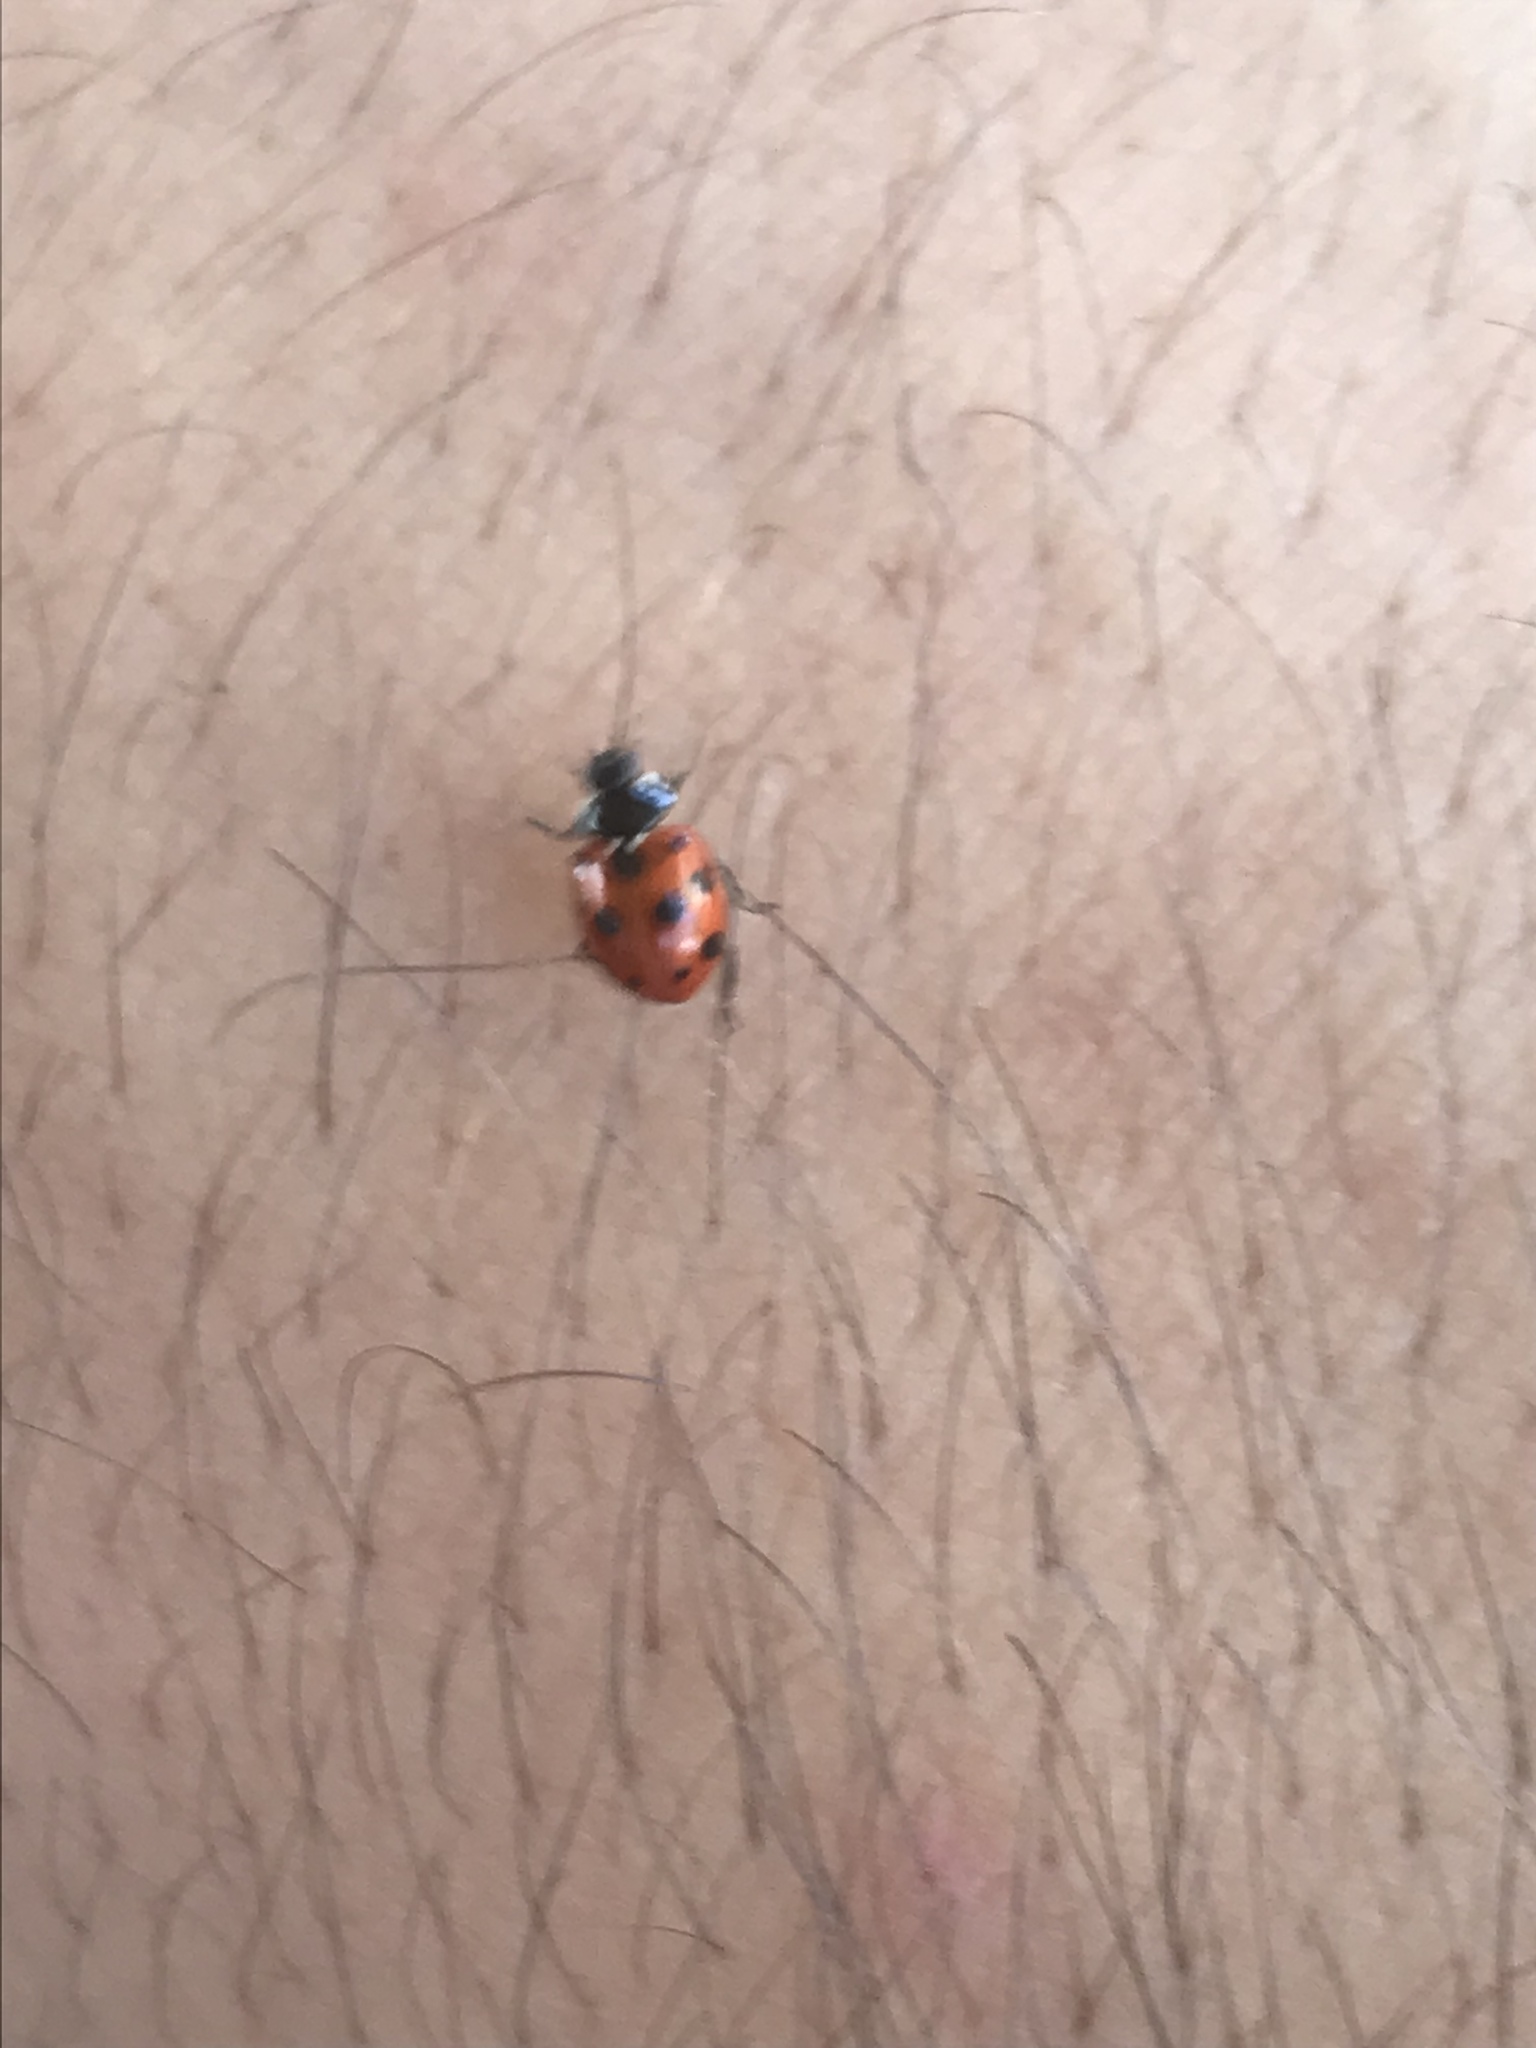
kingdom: Animalia
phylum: Arthropoda
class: Insecta
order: Coleoptera
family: Coccinellidae
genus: Hippodamia
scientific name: Hippodamia variegata
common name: Ladybird beetle
